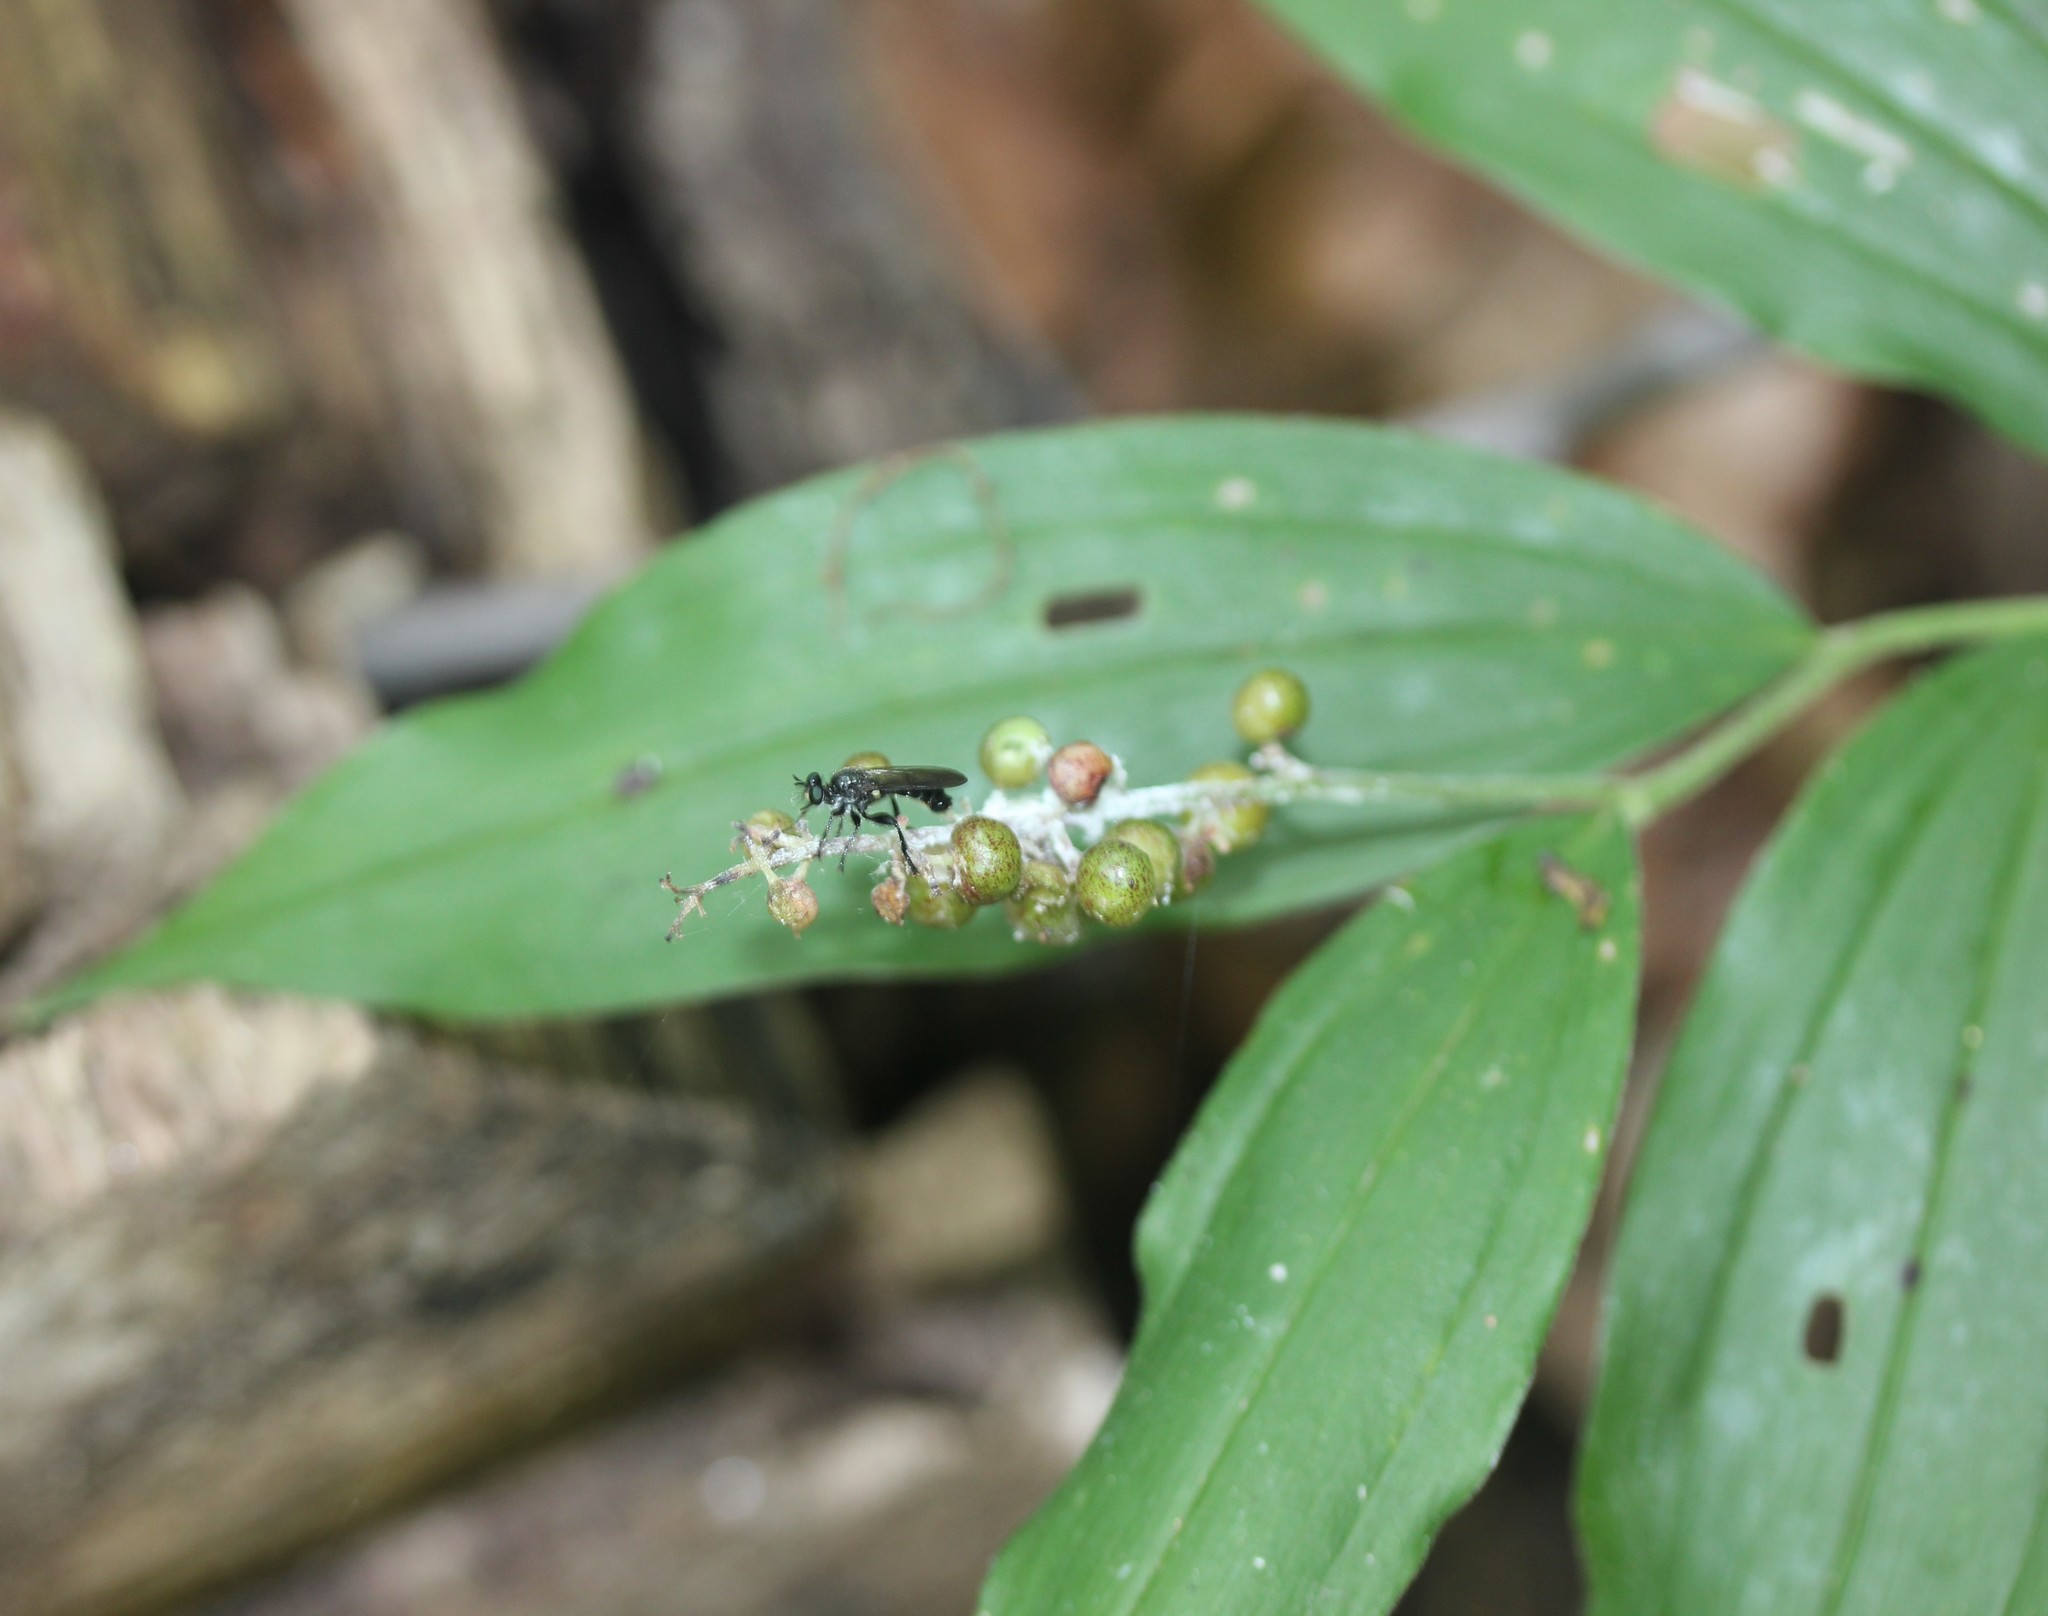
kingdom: Plantae
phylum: Tracheophyta
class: Liliopsida
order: Asparagales
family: Asparagaceae
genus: Maianthemum
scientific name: Maianthemum racemosum
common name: False spikenard
